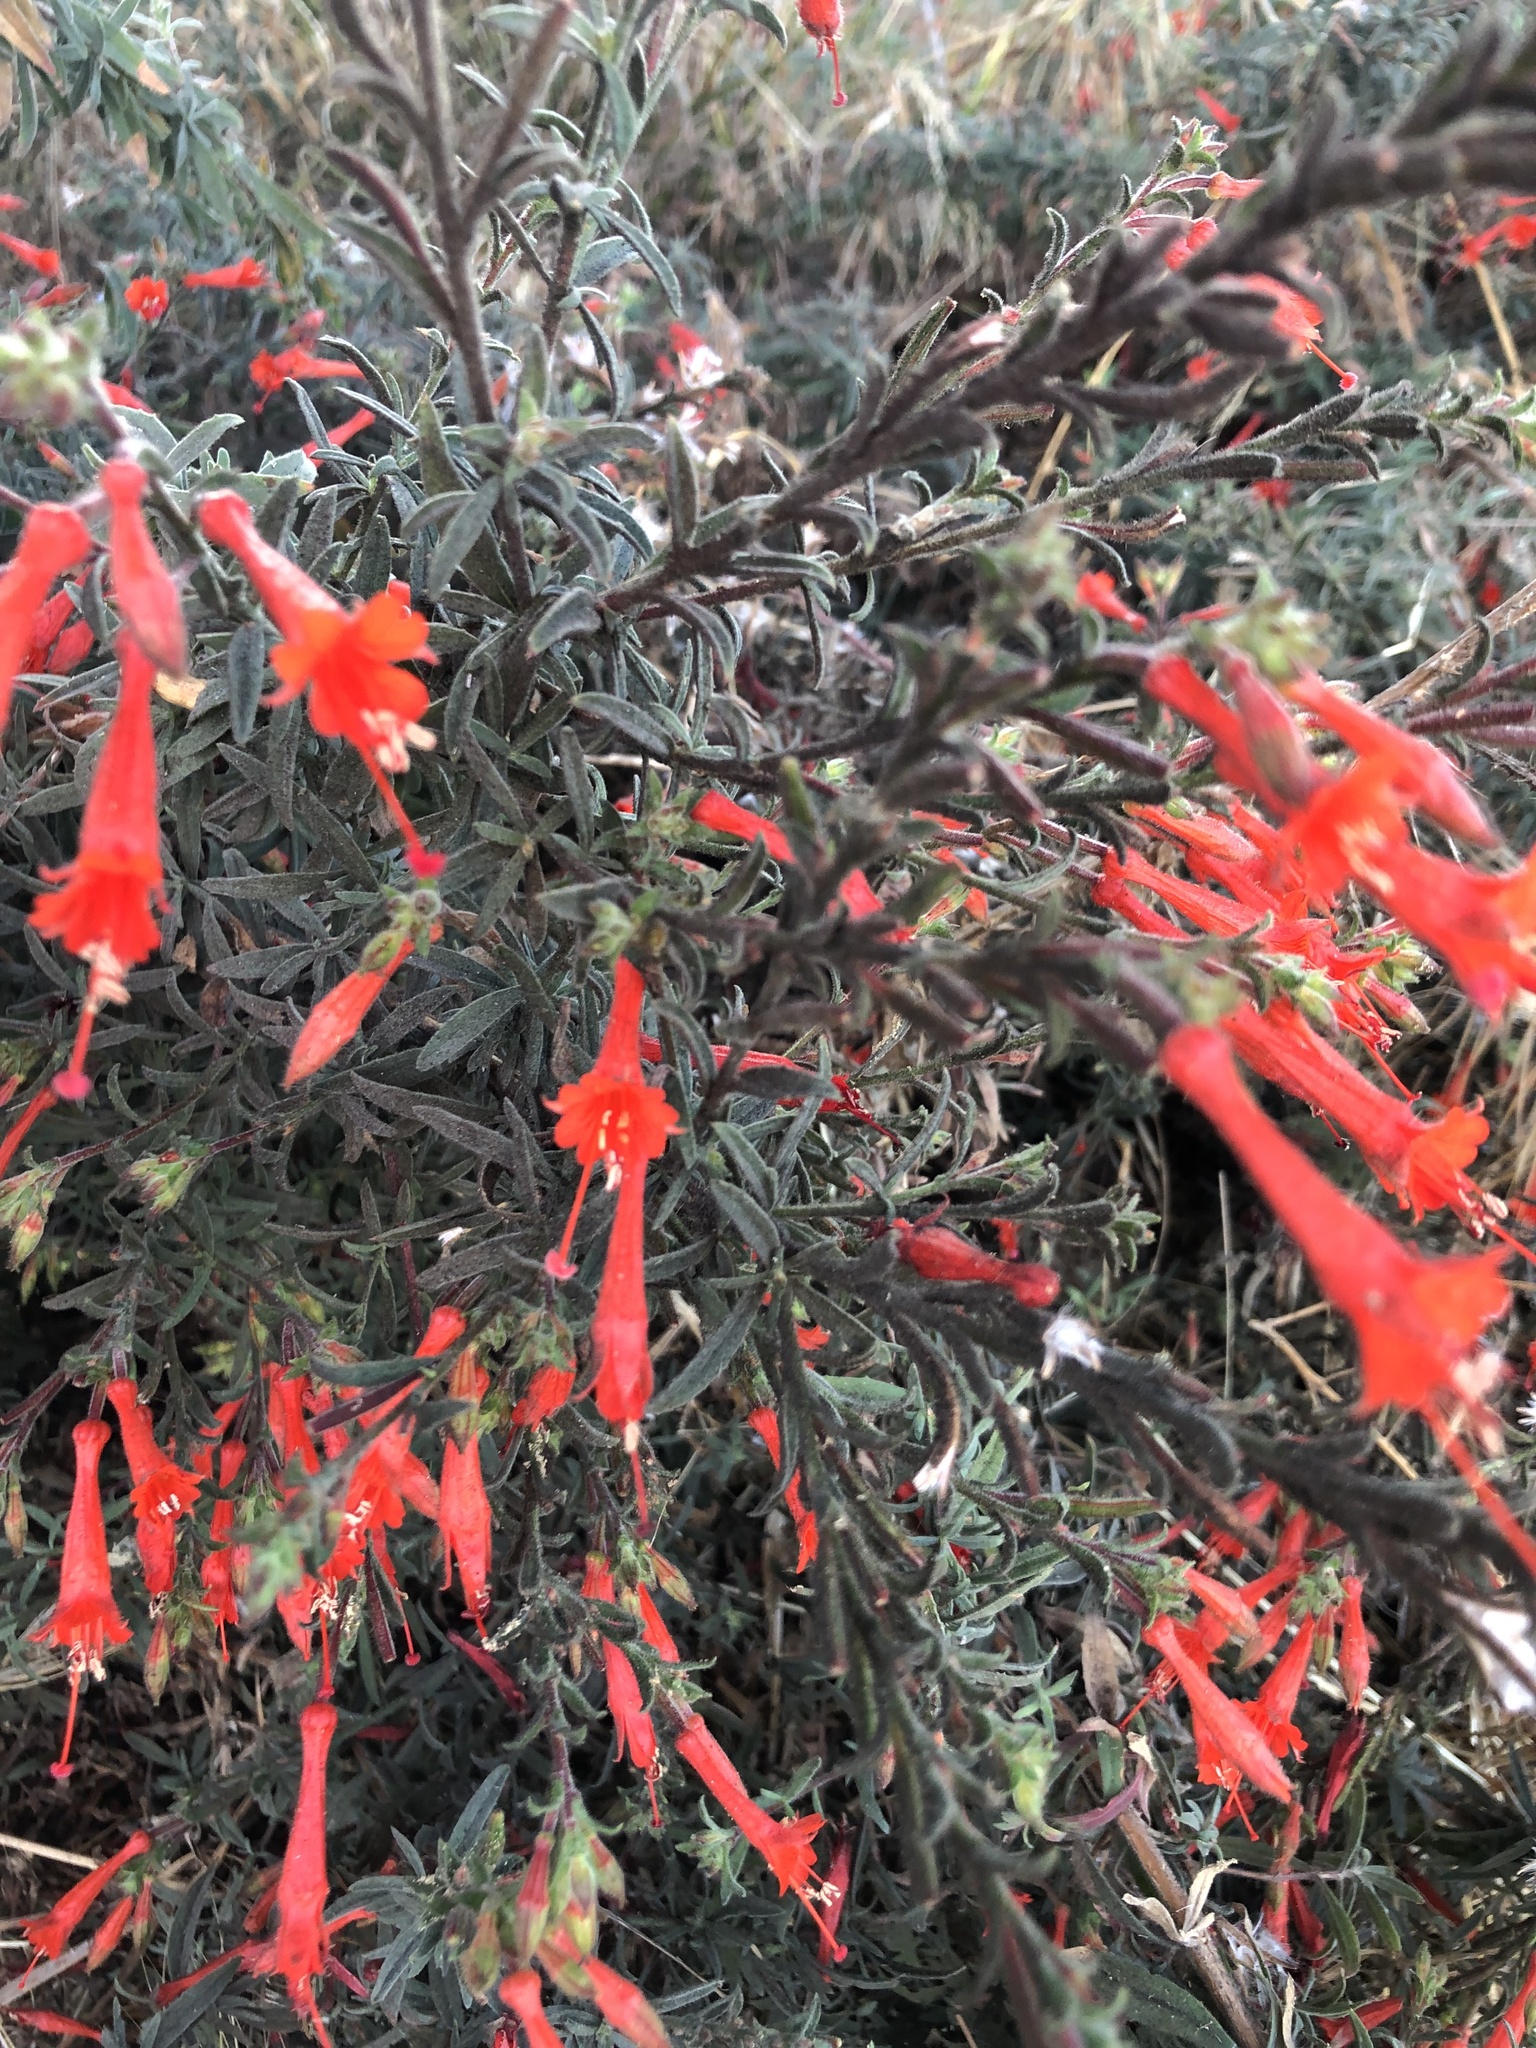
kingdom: Plantae
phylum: Tracheophyta
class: Magnoliopsida
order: Myrtales
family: Onagraceae
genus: Epilobium
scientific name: Epilobium canum
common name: California-fuchsia
